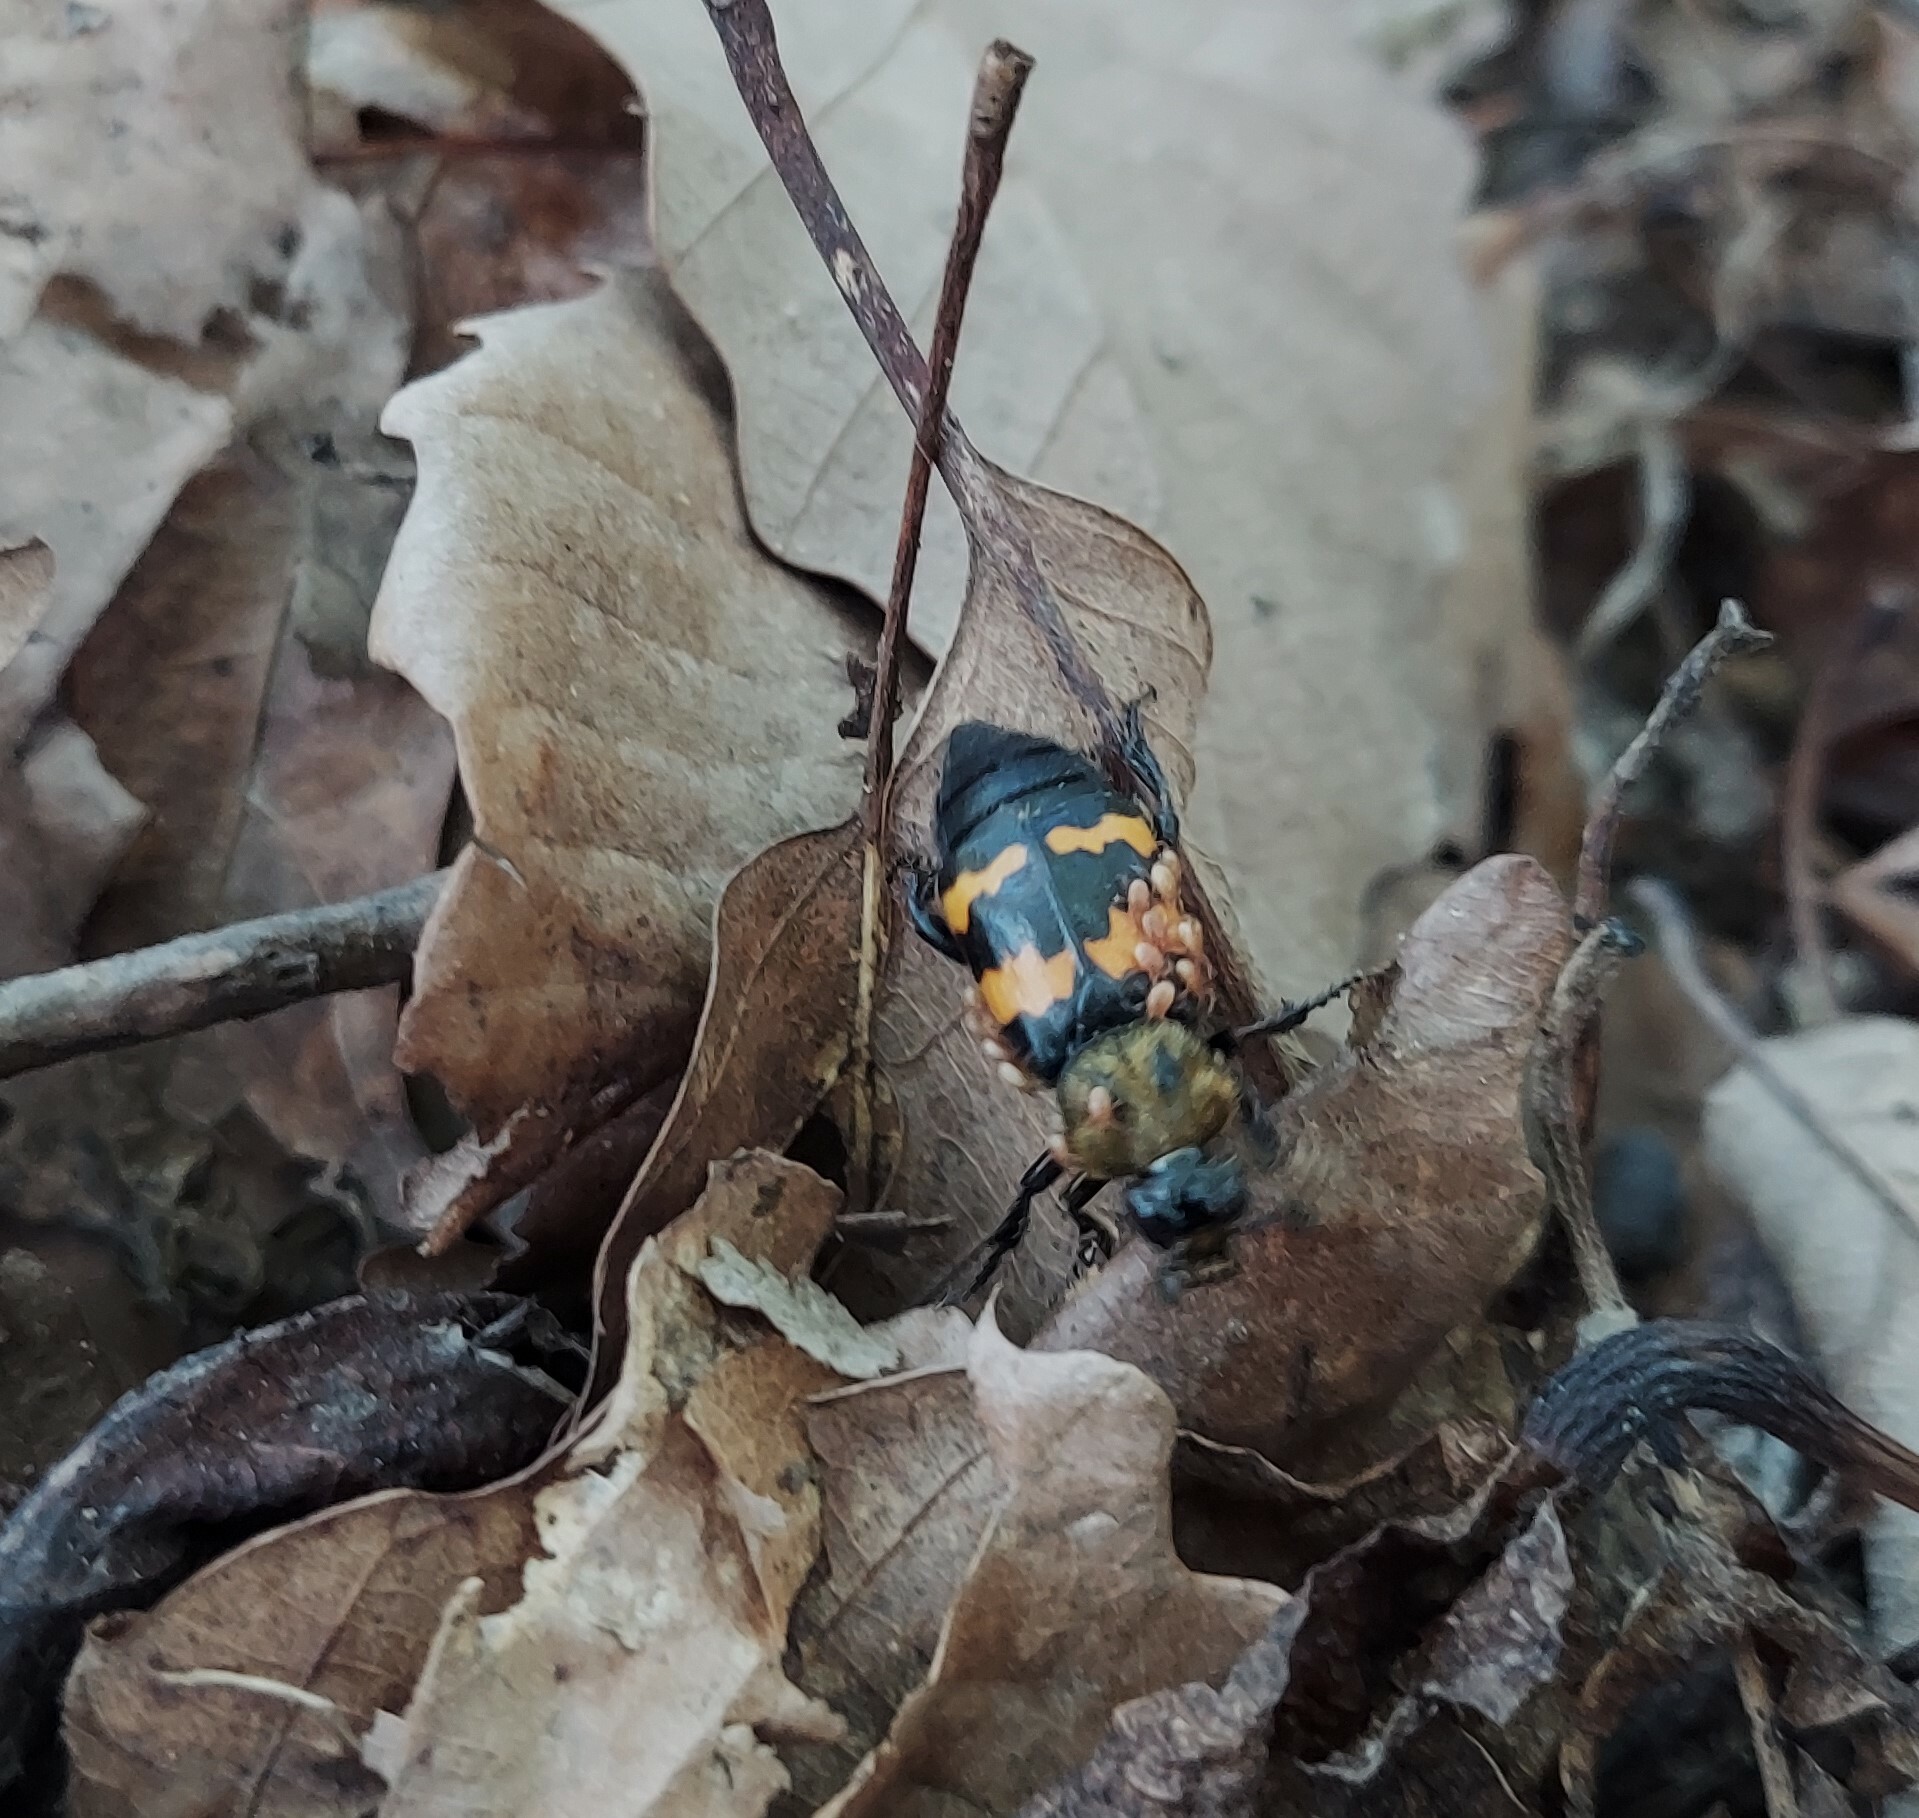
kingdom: Animalia
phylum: Arthropoda
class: Insecta
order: Coleoptera
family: Staphylinidae
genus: Nicrophorus
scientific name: Nicrophorus tomentosus
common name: Tomentose burying beetle
